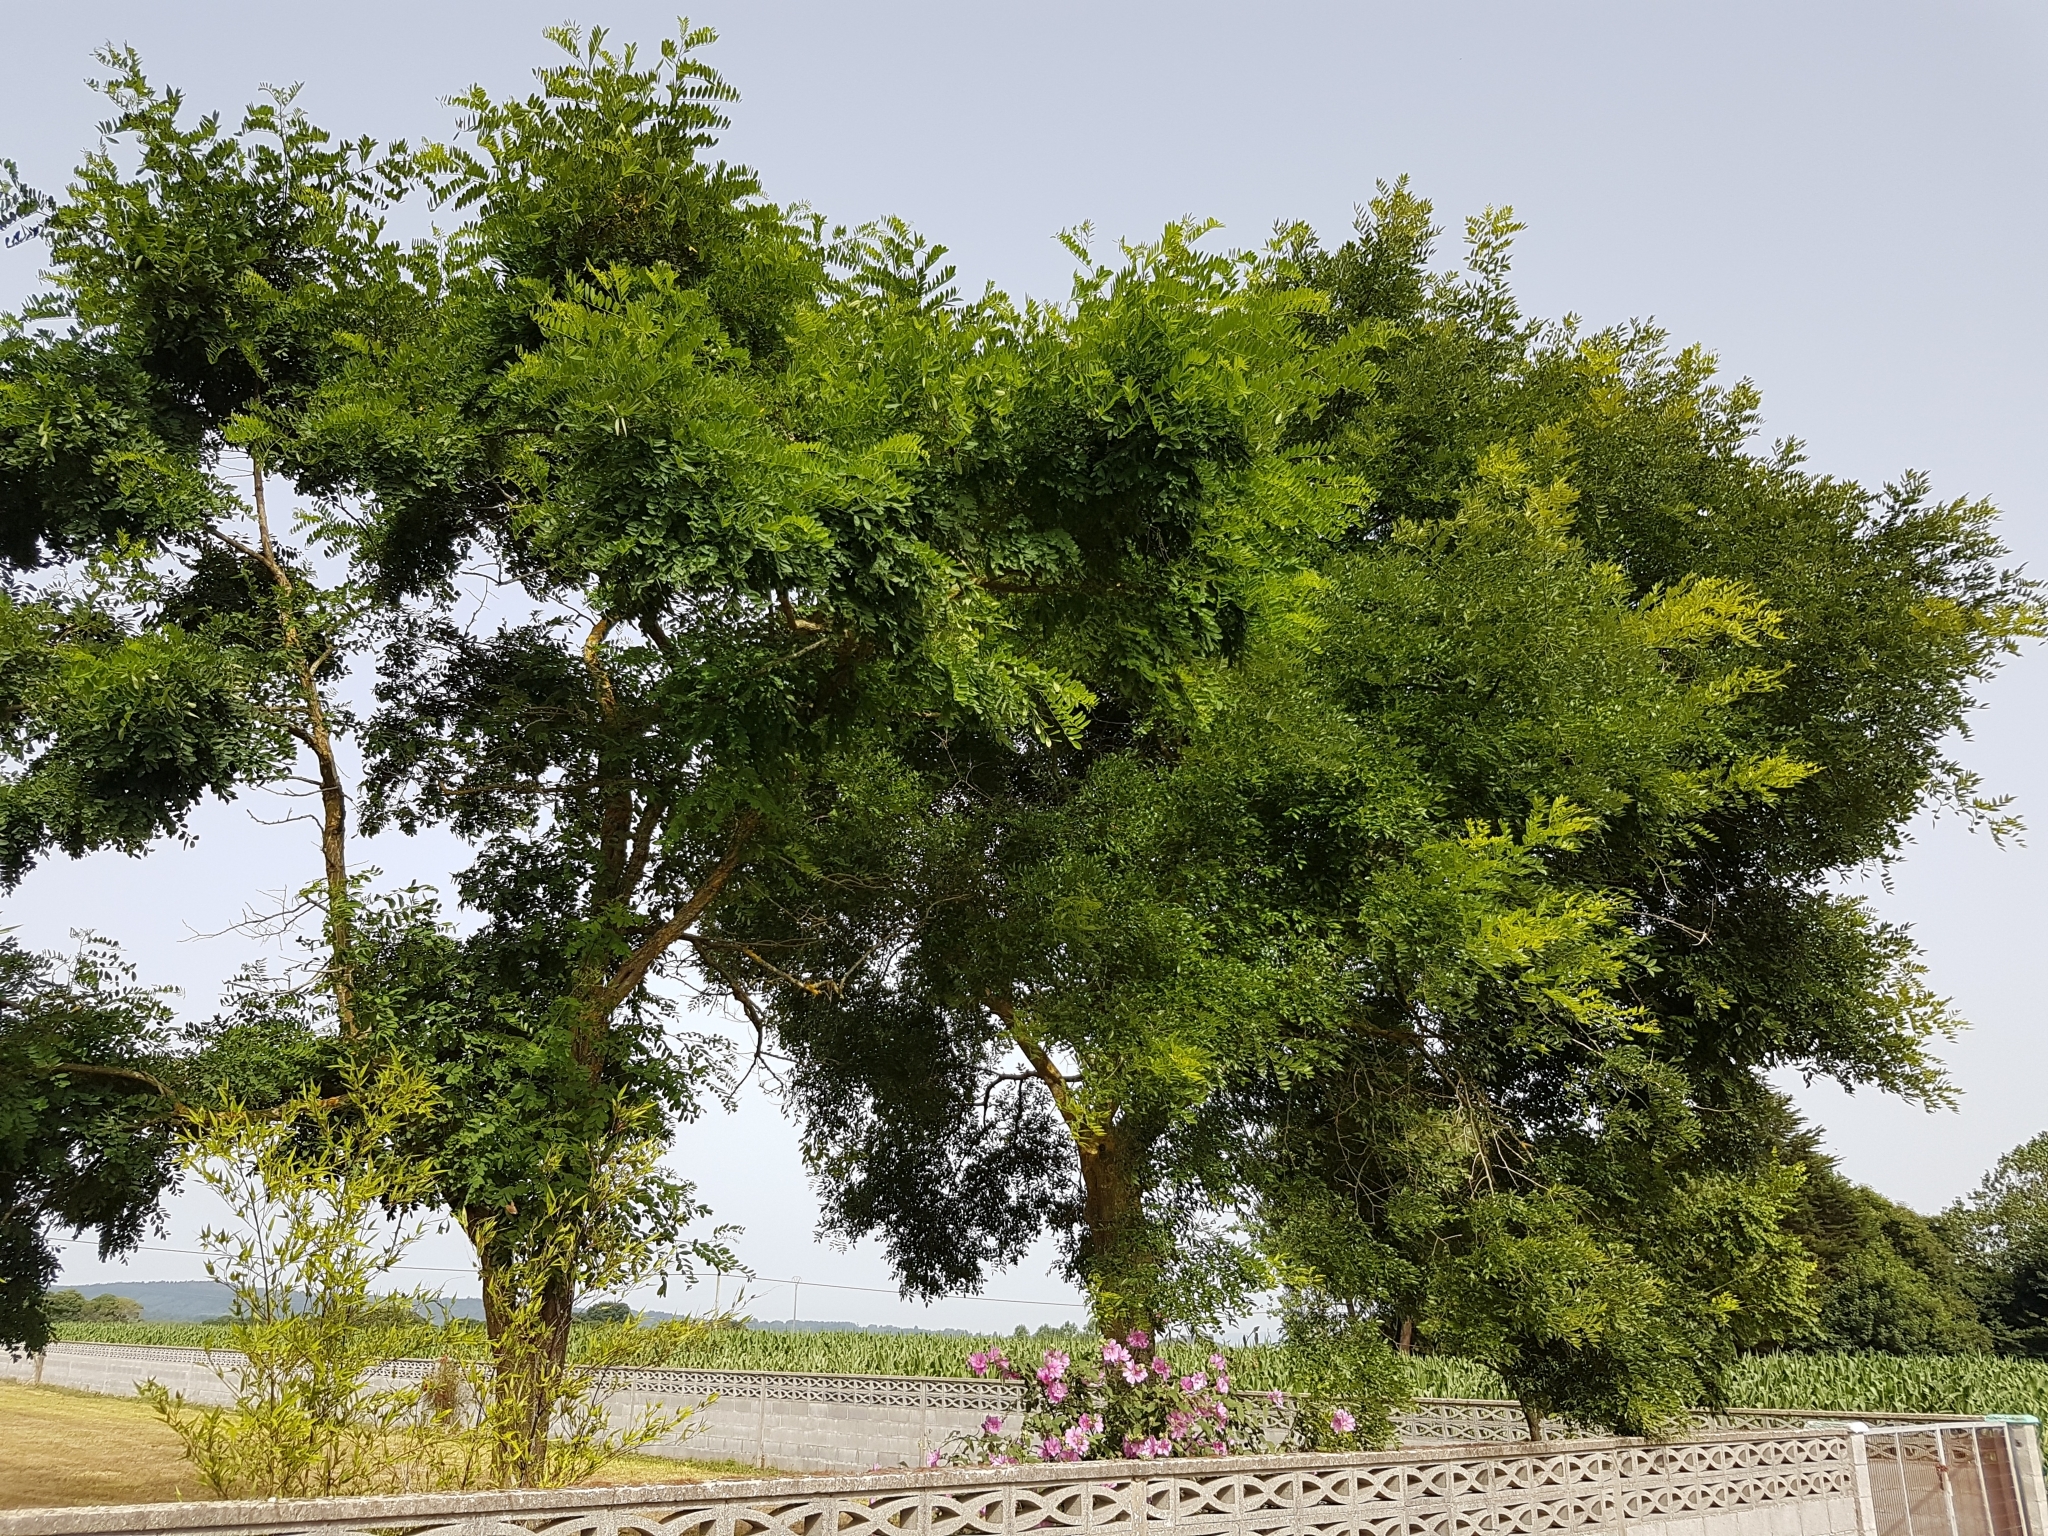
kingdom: Plantae
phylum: Tracheophyta
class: Magnoliopsida
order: Fabales
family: Fabaceae
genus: Robinia
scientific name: Robinia pseudoacacia
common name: Black locust
